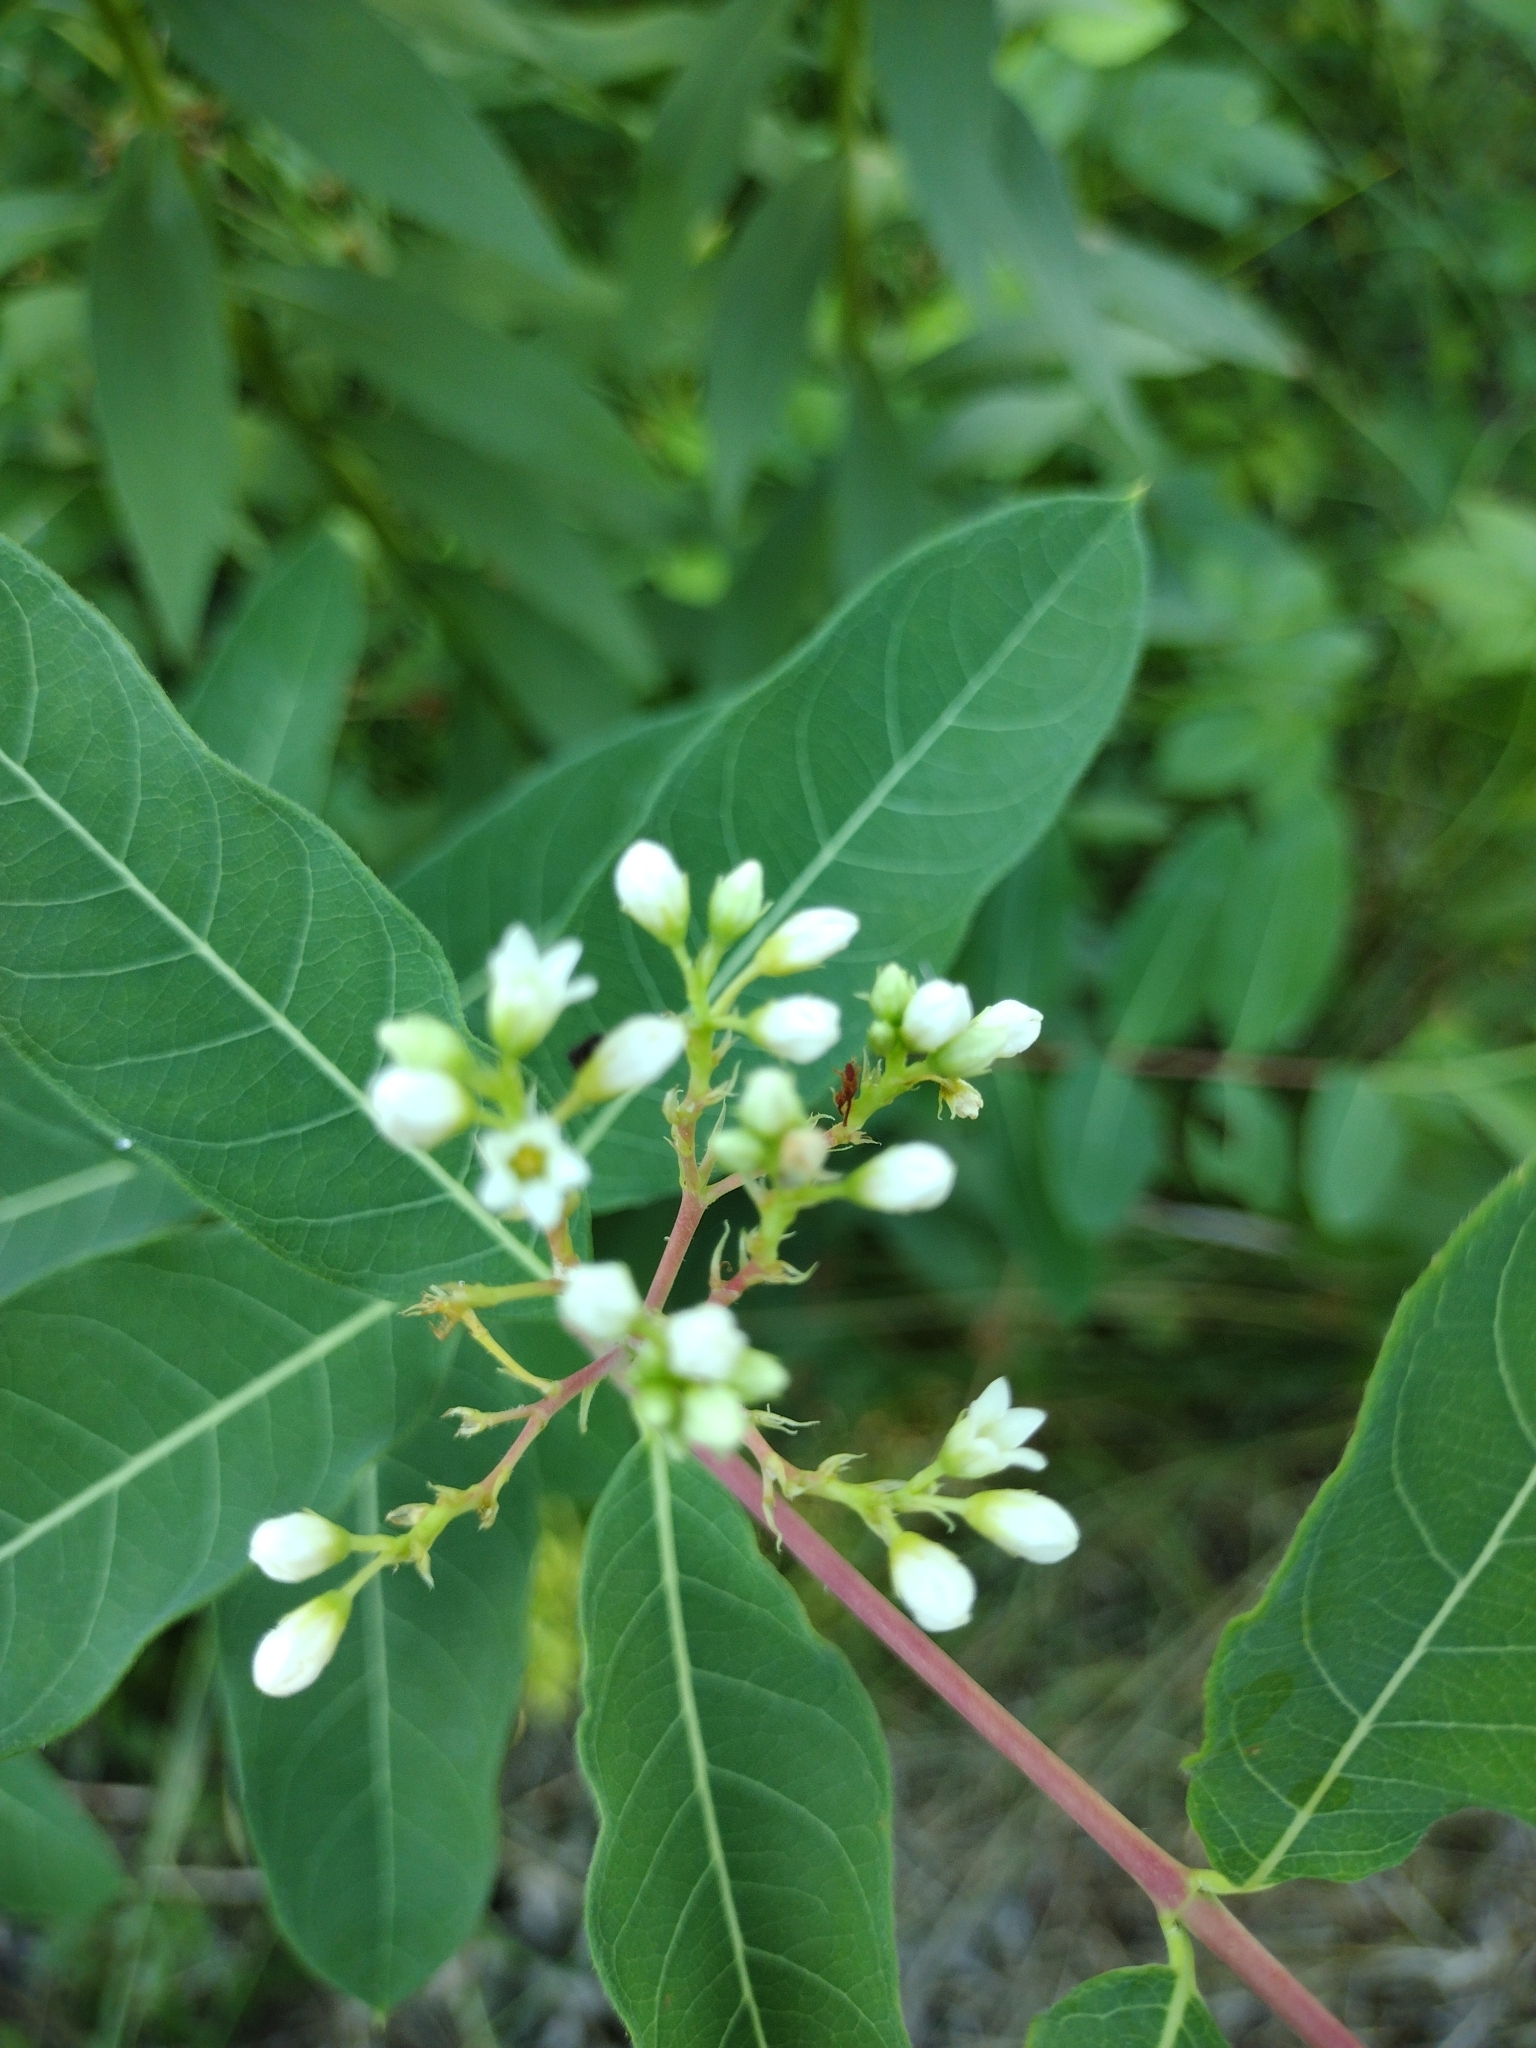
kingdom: Plantae
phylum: Tracheophyta
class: Magnoliopsida
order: Gentianales
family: Apocynaceae
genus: Apocynum
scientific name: Apocynum cannabinum
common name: Hemp dogbane
